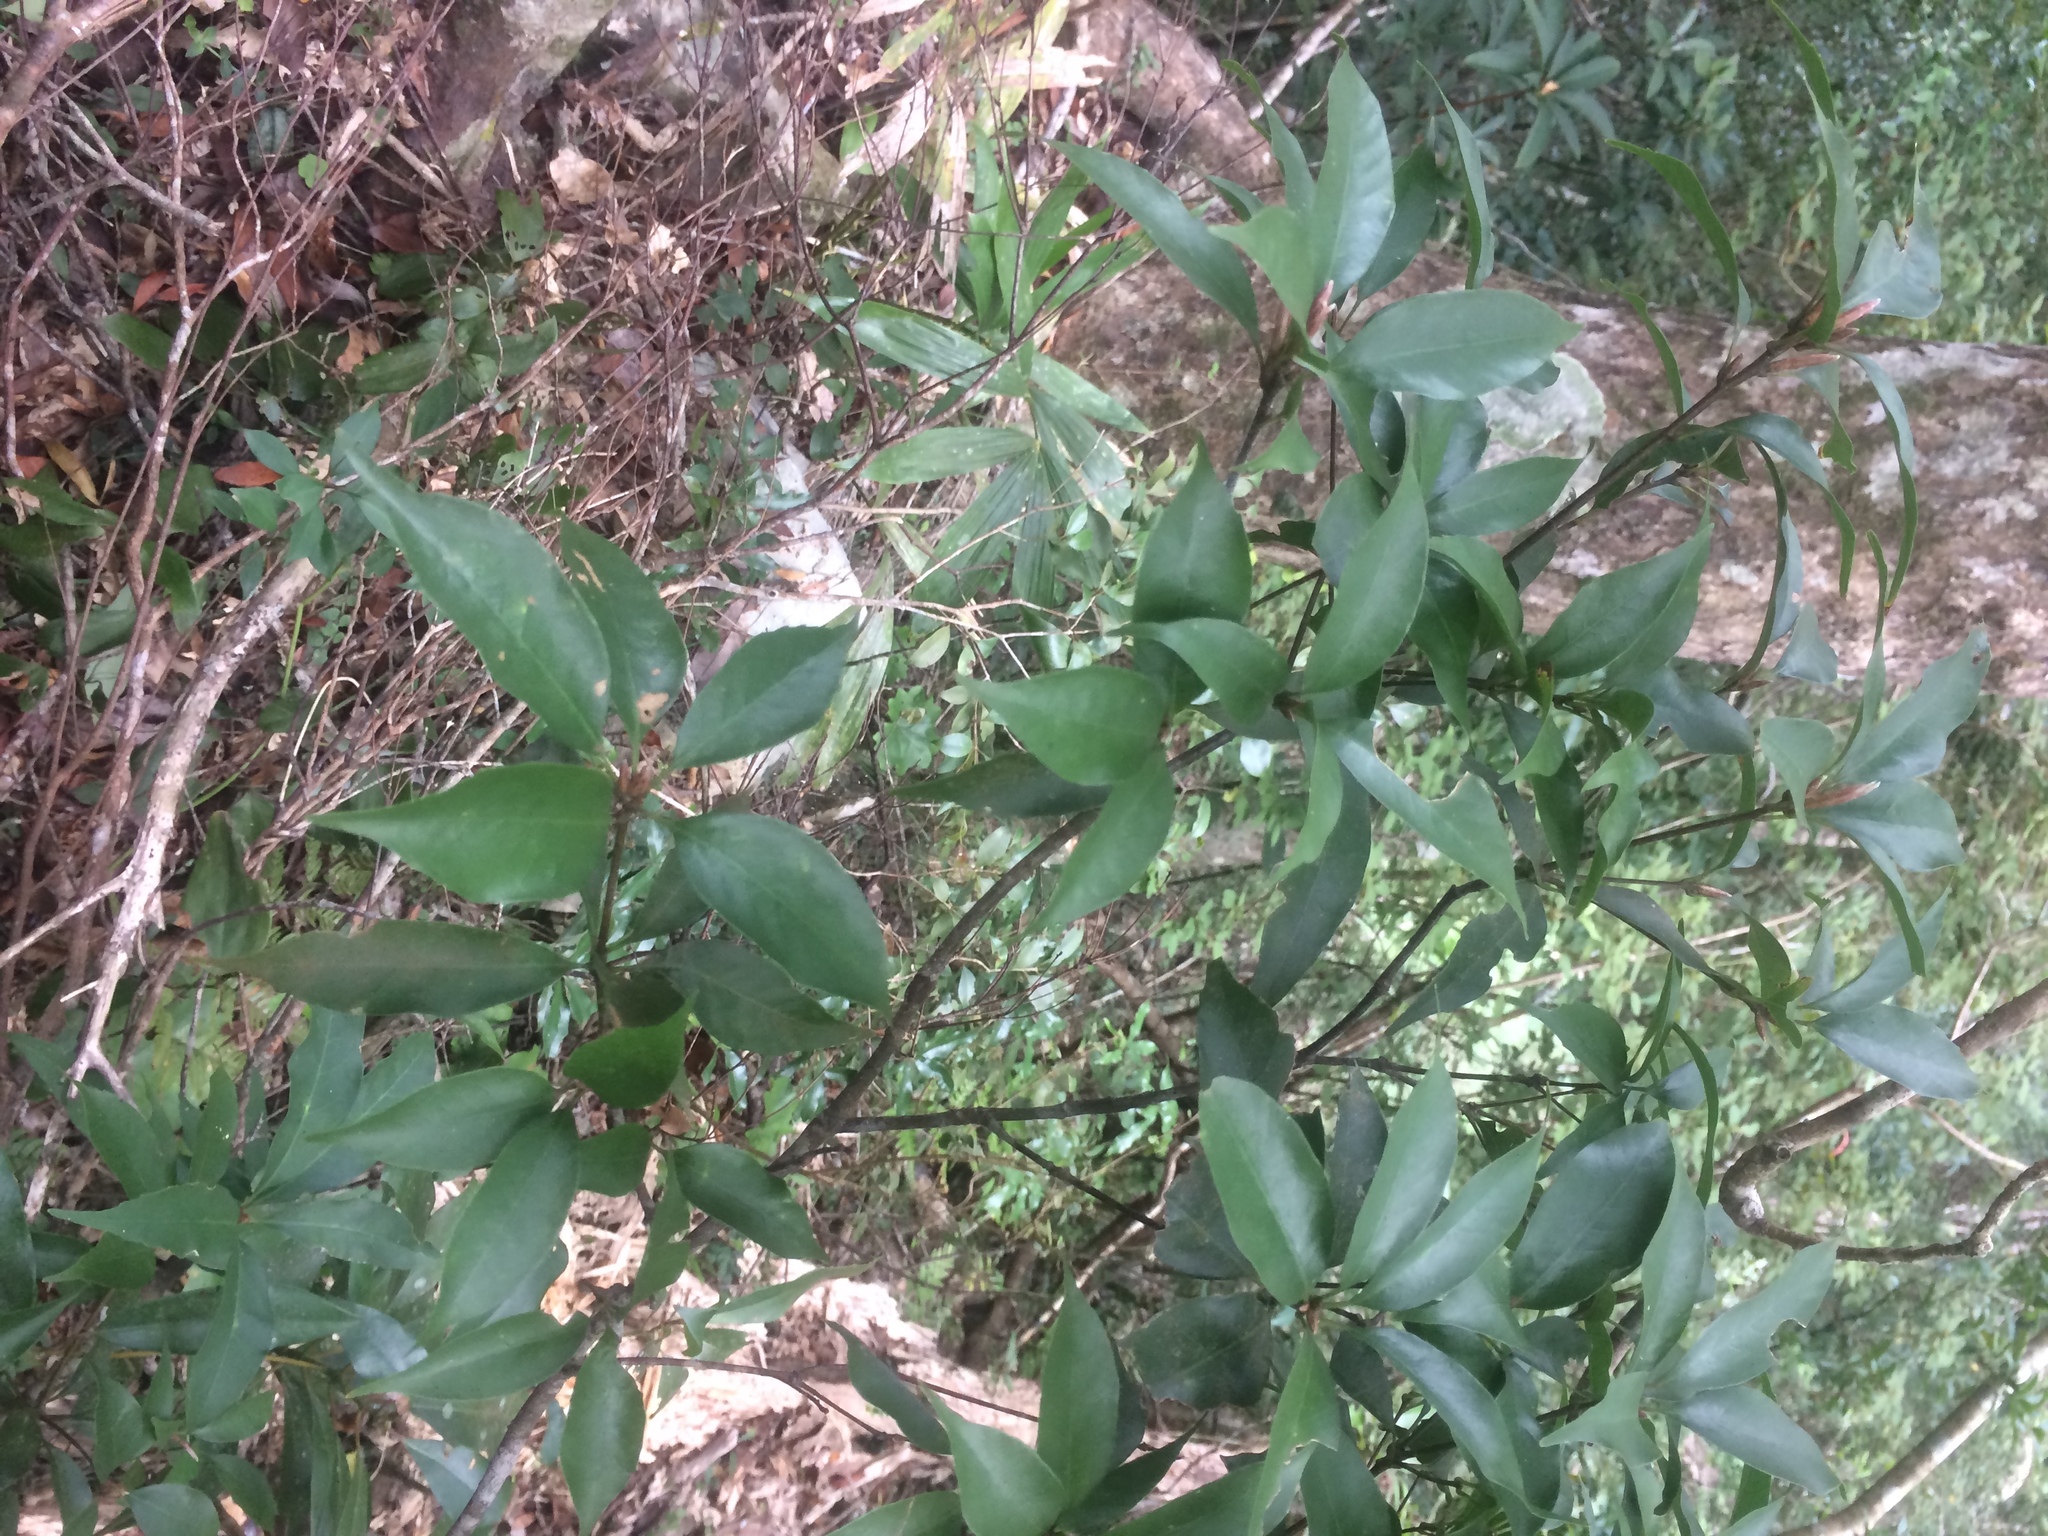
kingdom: Plantae
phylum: Tracheophyta
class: Magnoliopsida
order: Fagales
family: Fagaceae
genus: Quercus
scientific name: Quercus longinux
